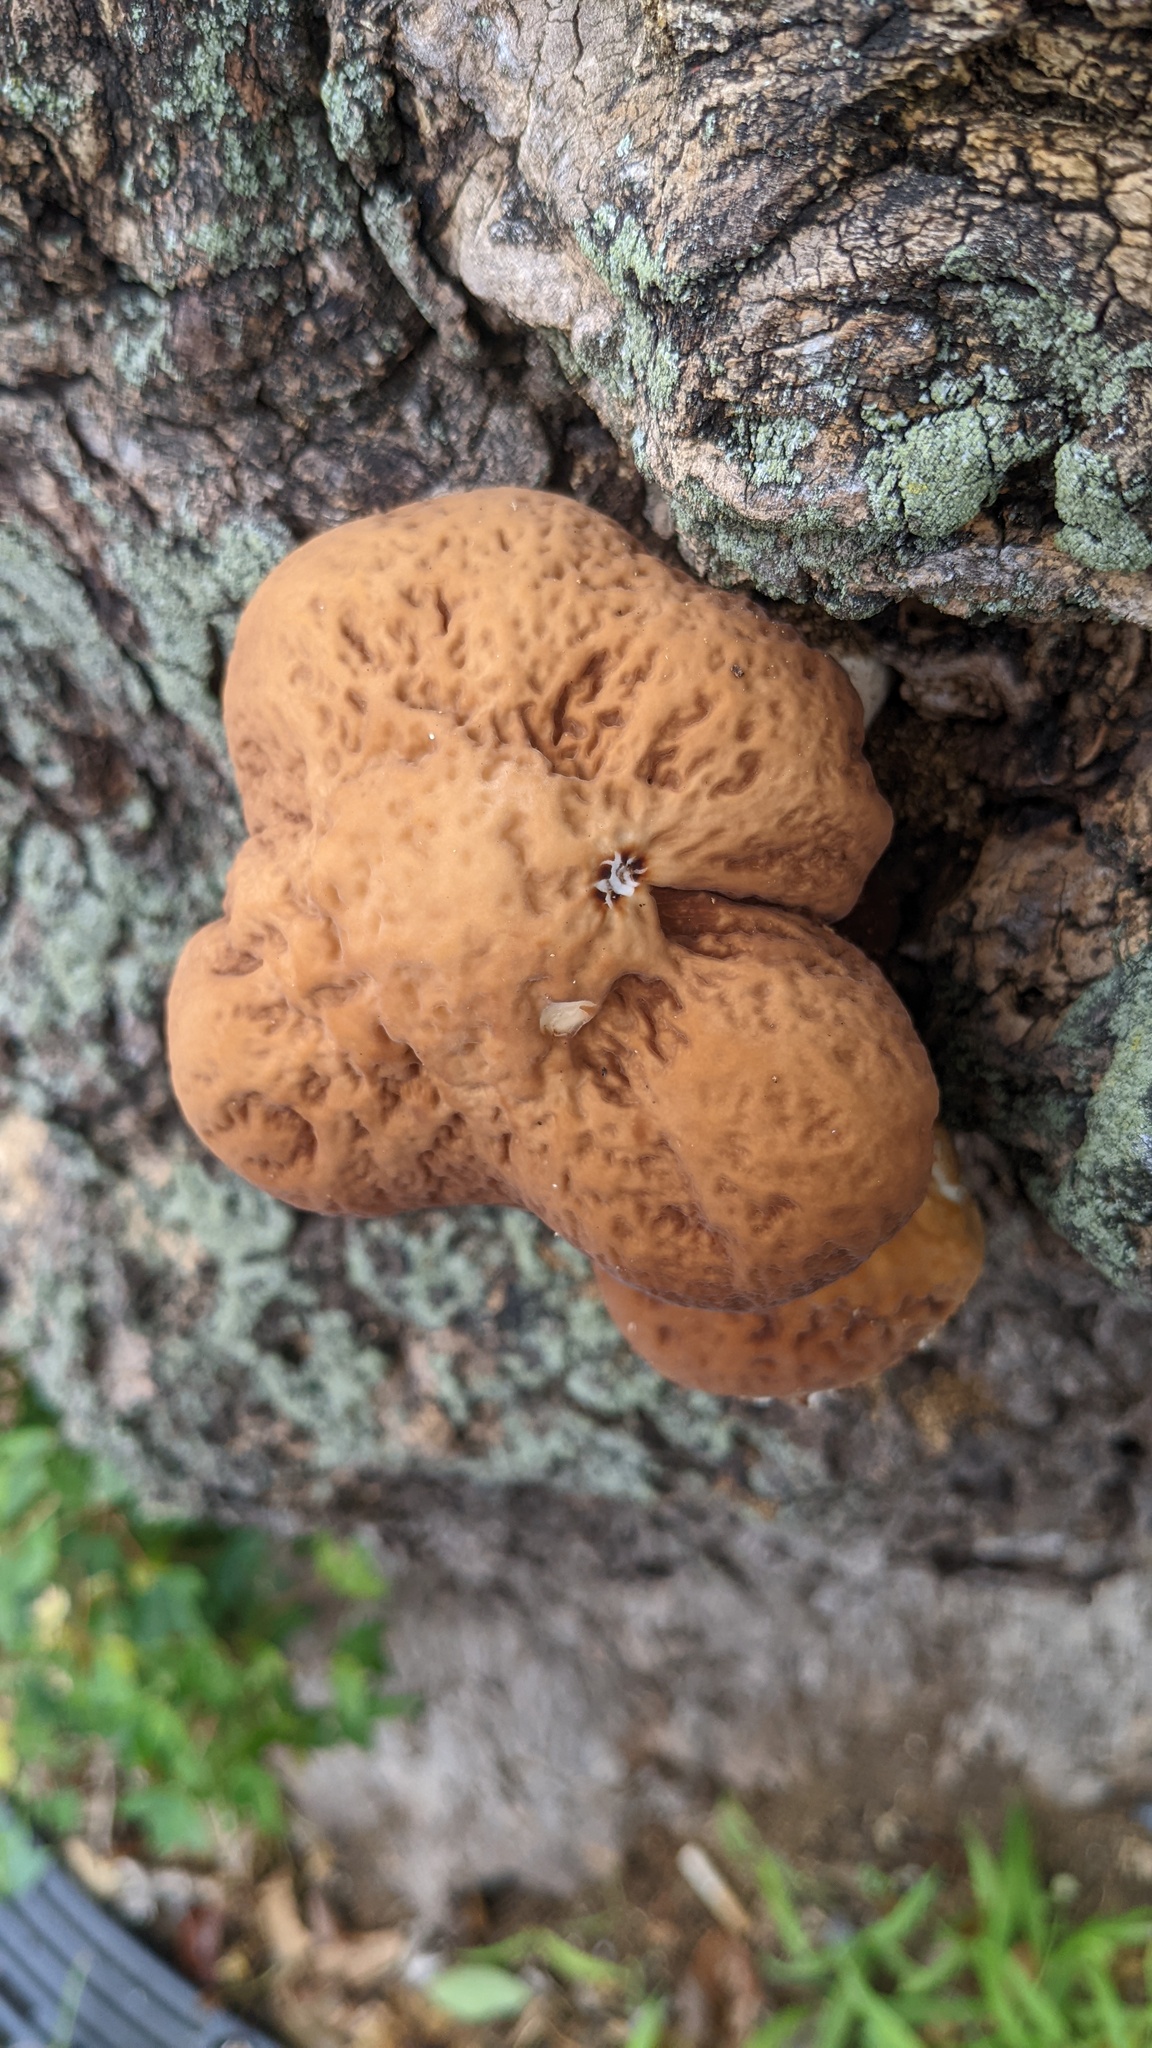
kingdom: Fungi
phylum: Basidiomycota
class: Agaricomycetes
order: Agaricales
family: Tubariaceae
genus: Cyclocybe
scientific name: Cyclocybe cylindracea
